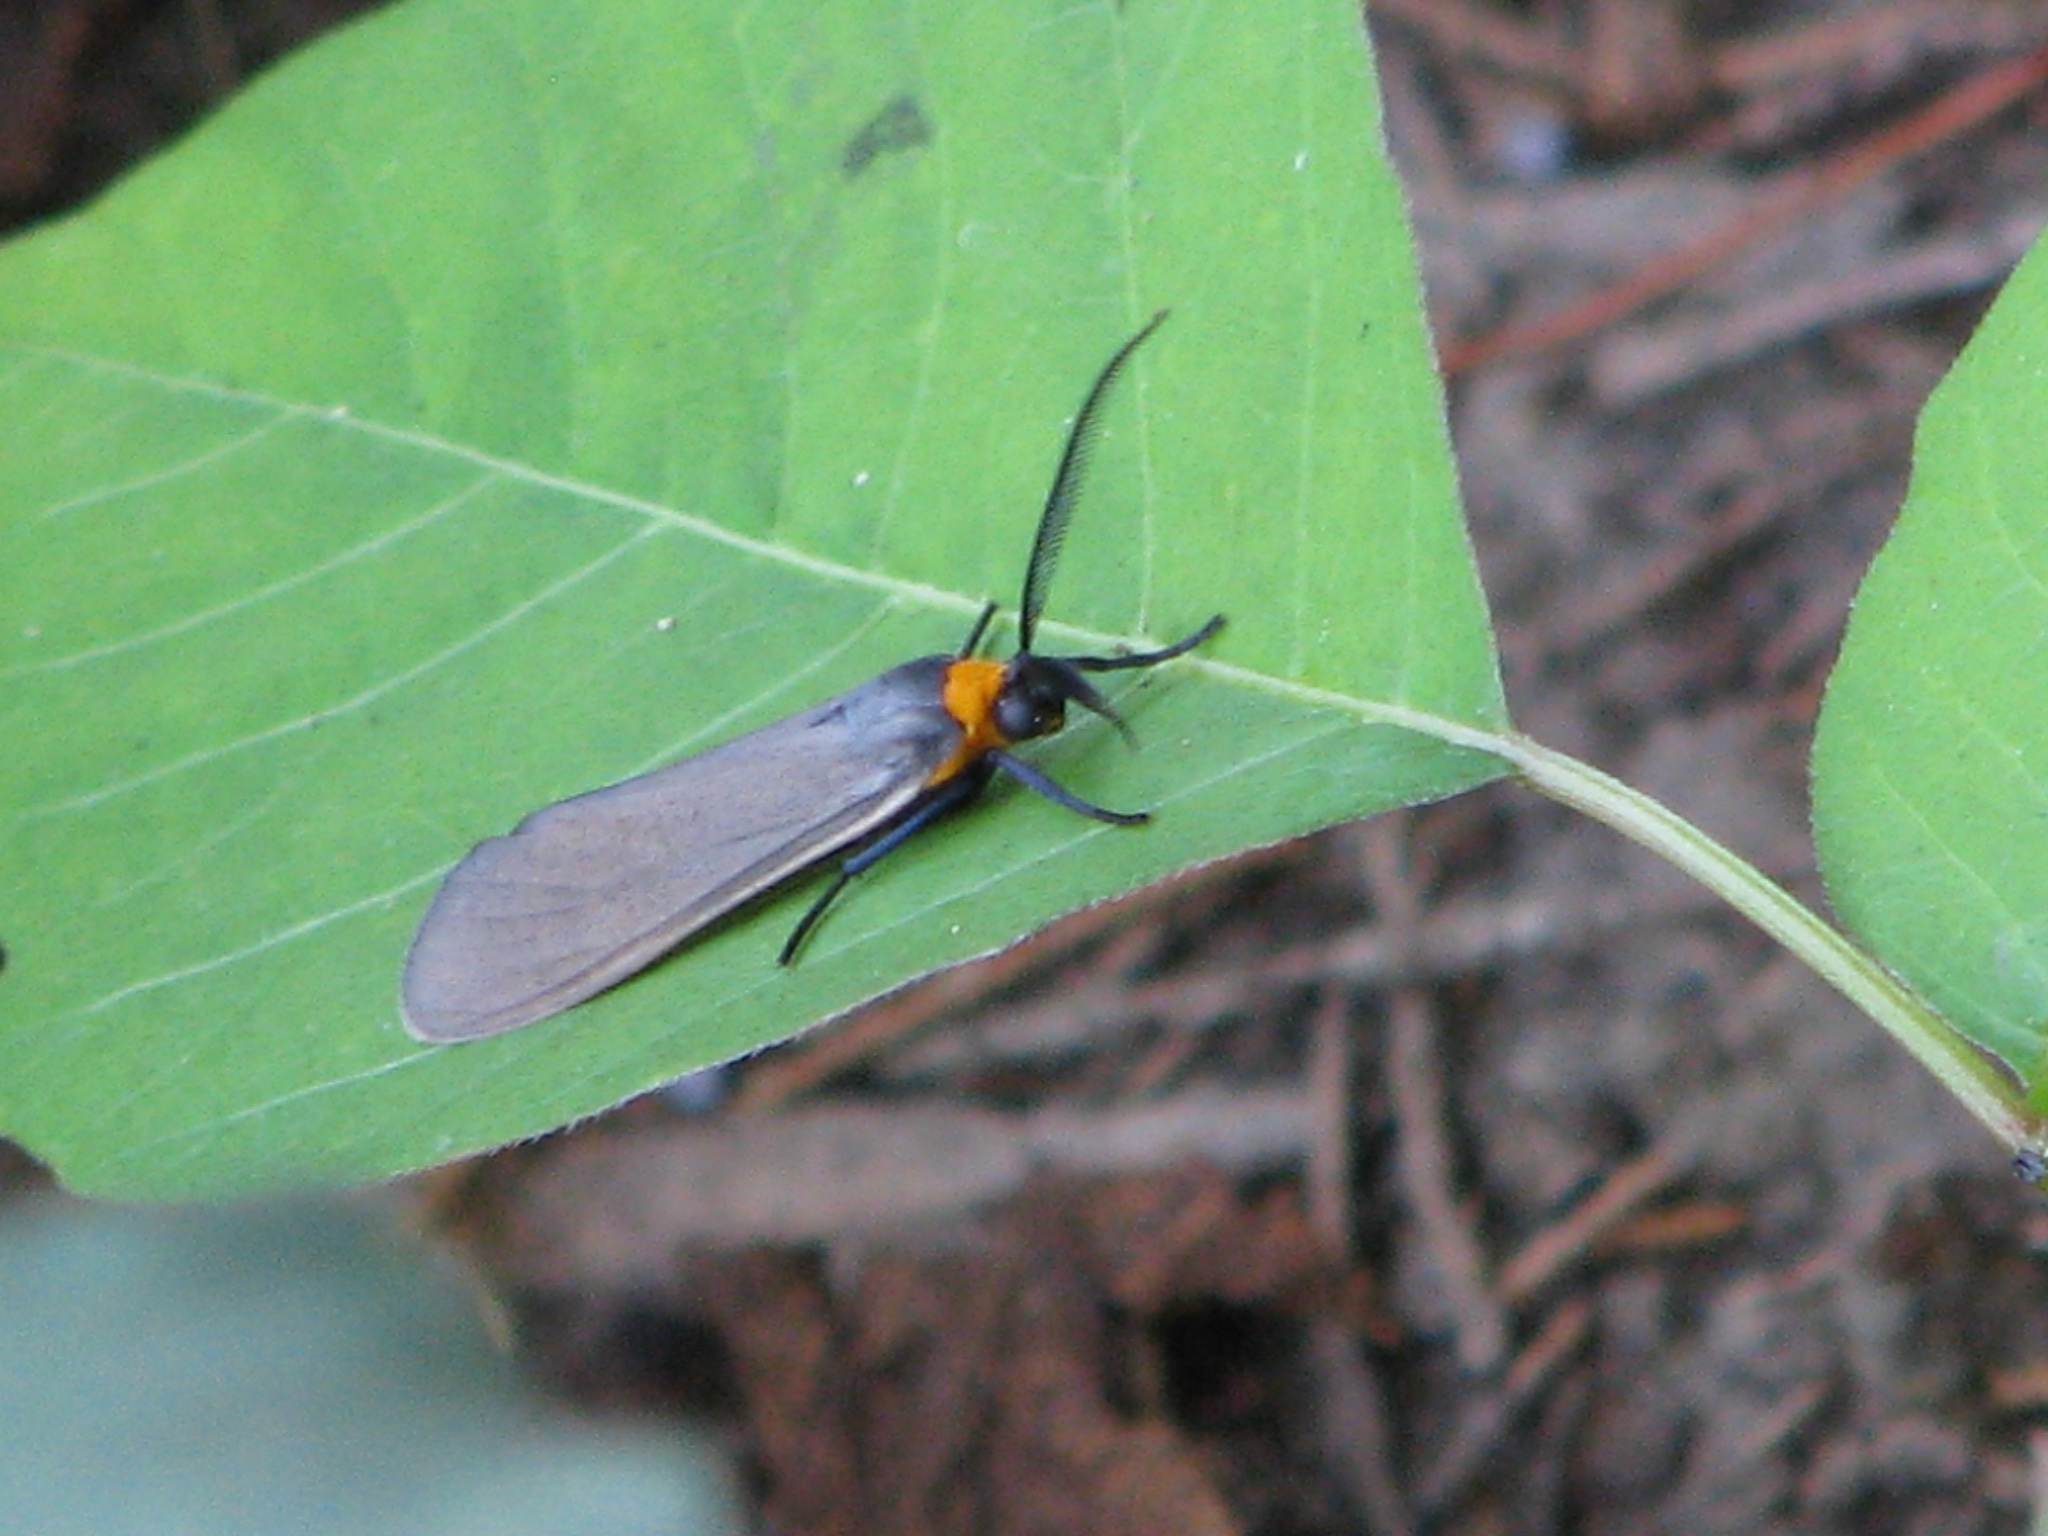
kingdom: Animalia
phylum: Arthropoda
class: Insecta
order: Lepidoptera
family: Erebidae
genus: Cisseps
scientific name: Cisseps fulvicollis
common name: Yellow-collared scape moth
